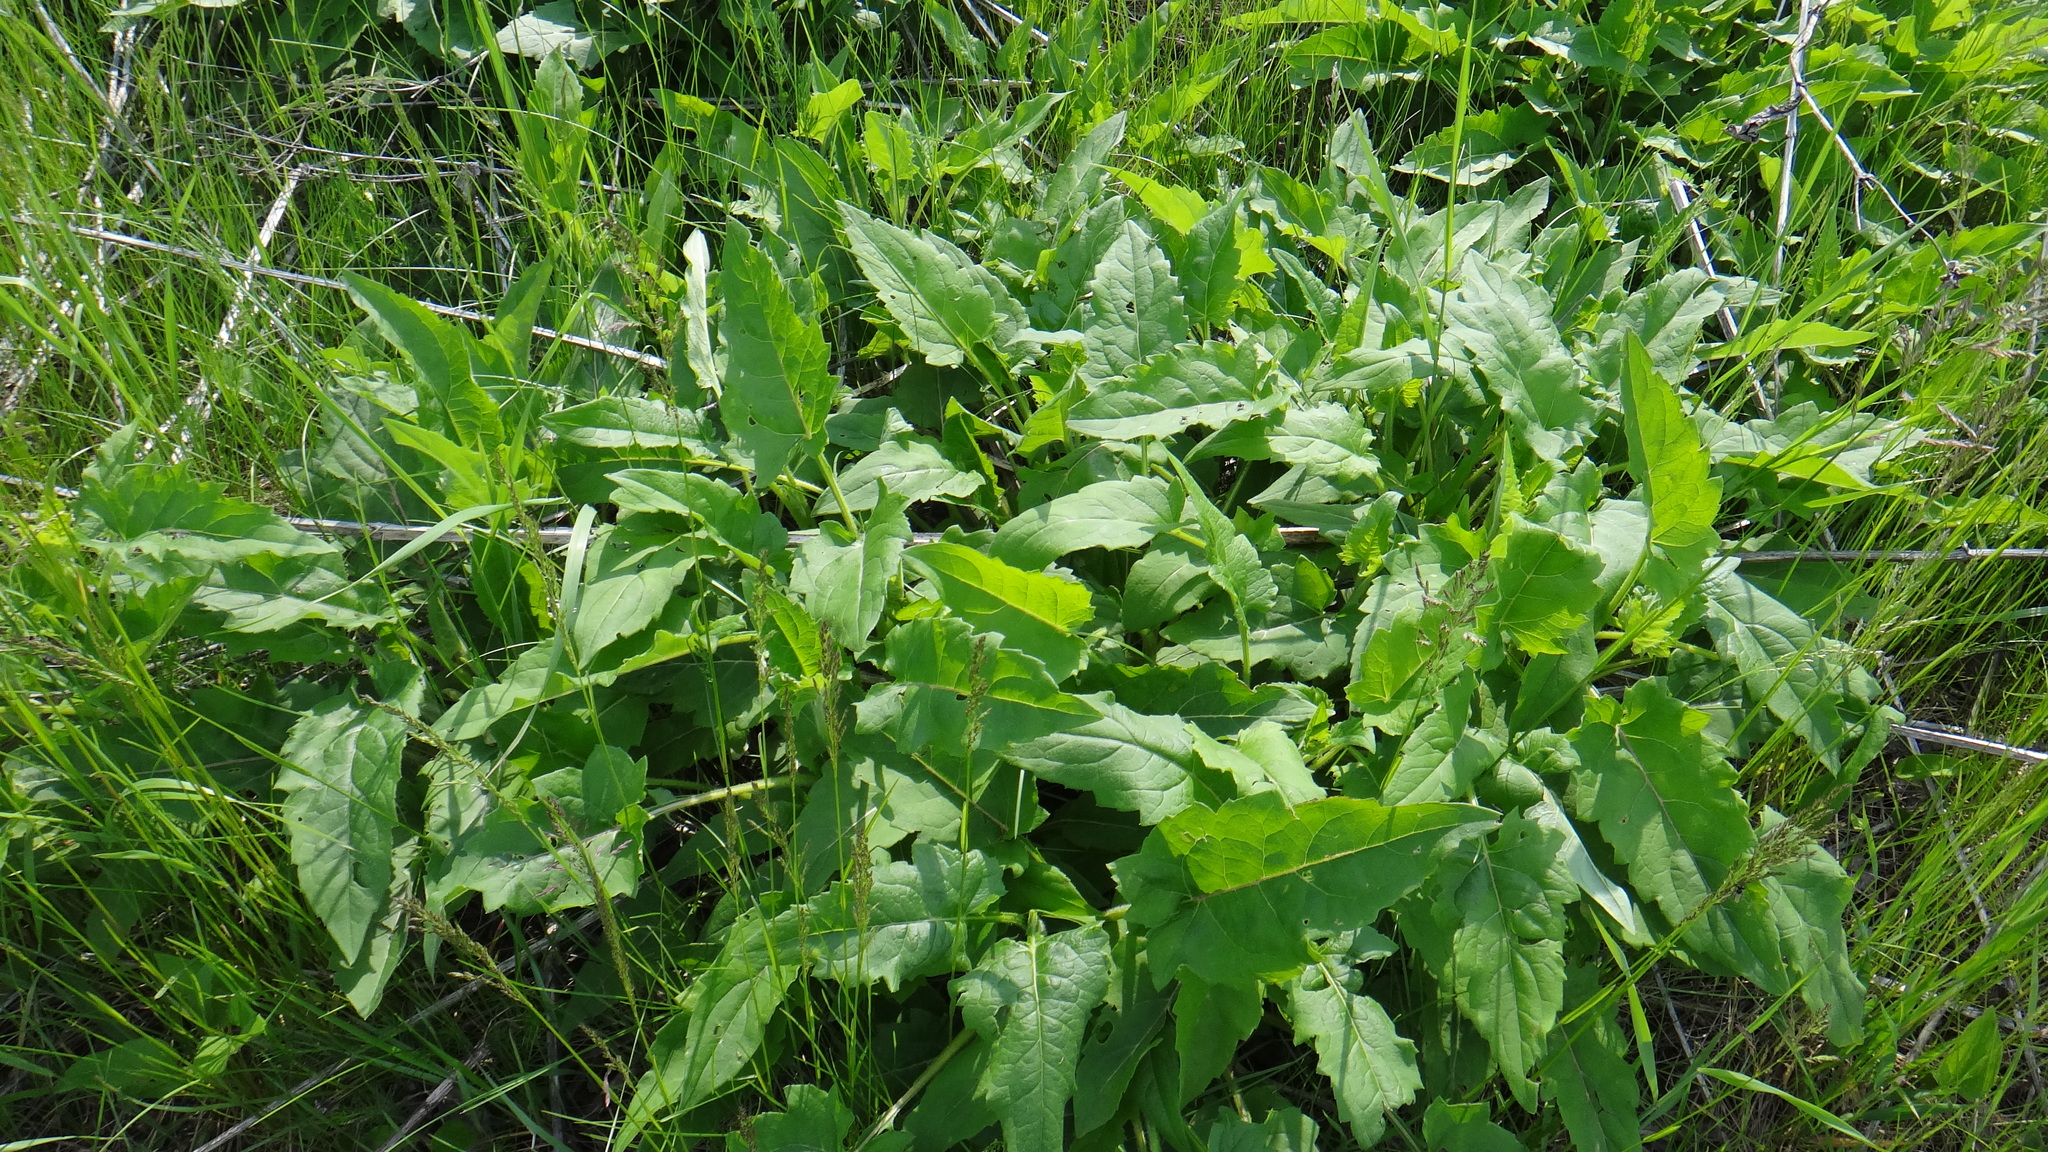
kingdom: Plantae
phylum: Tracheophyta
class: Magnoliopsida
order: Asterales
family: Asteraceae
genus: Silphium
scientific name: Silphium perfoliatum
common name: Cup-plant
